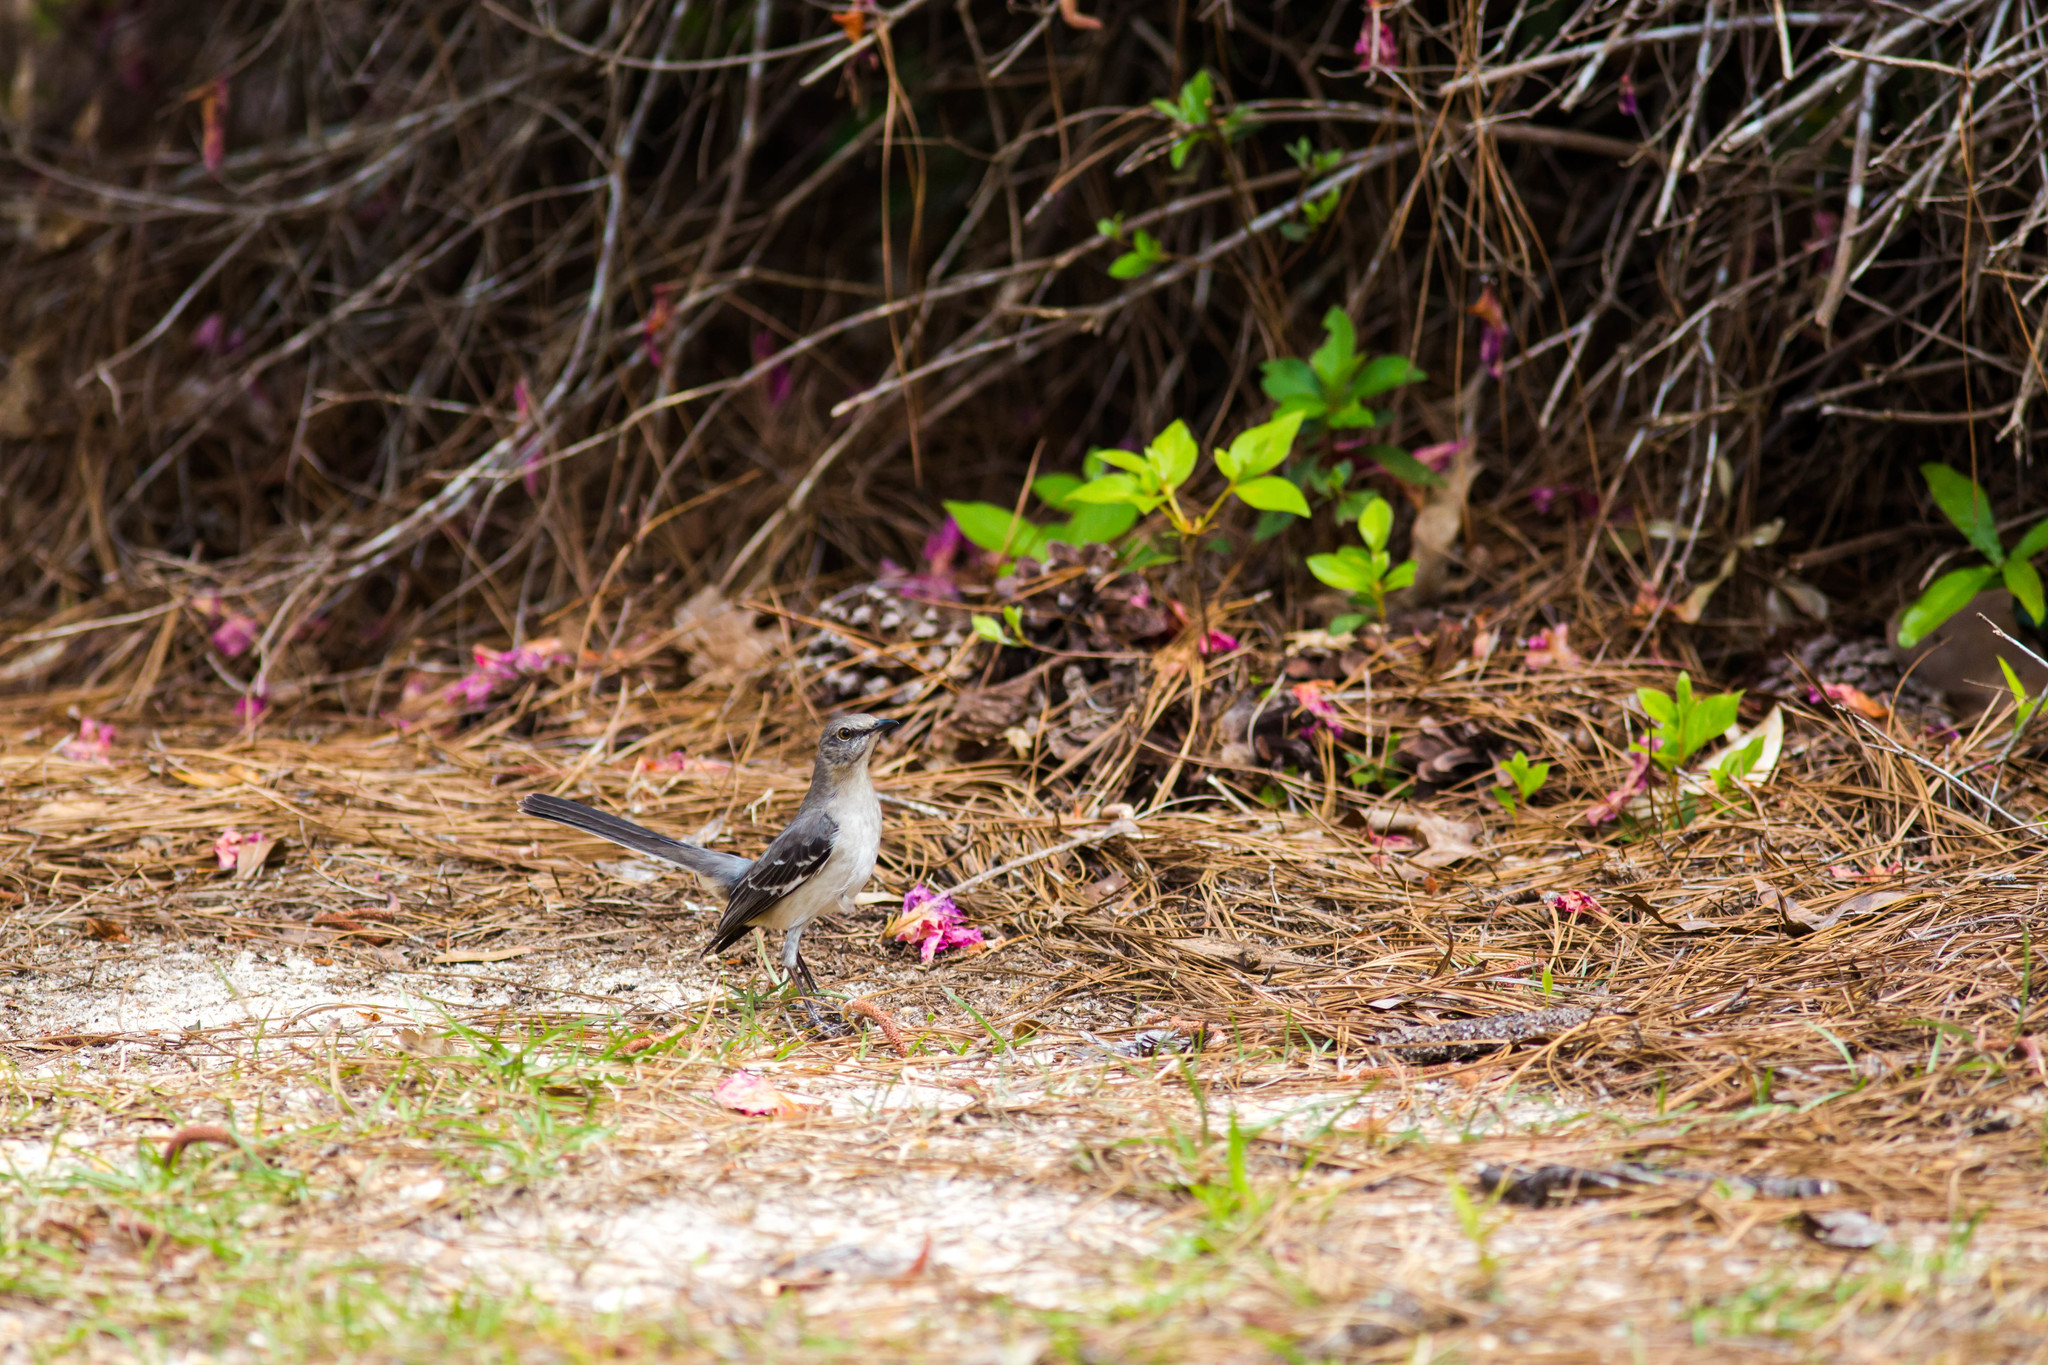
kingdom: Animalia
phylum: Chordata
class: Aves
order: Passeriformes
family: Mimidae
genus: Mimus
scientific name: Mimus polyglottos
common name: Northern mockingbird
